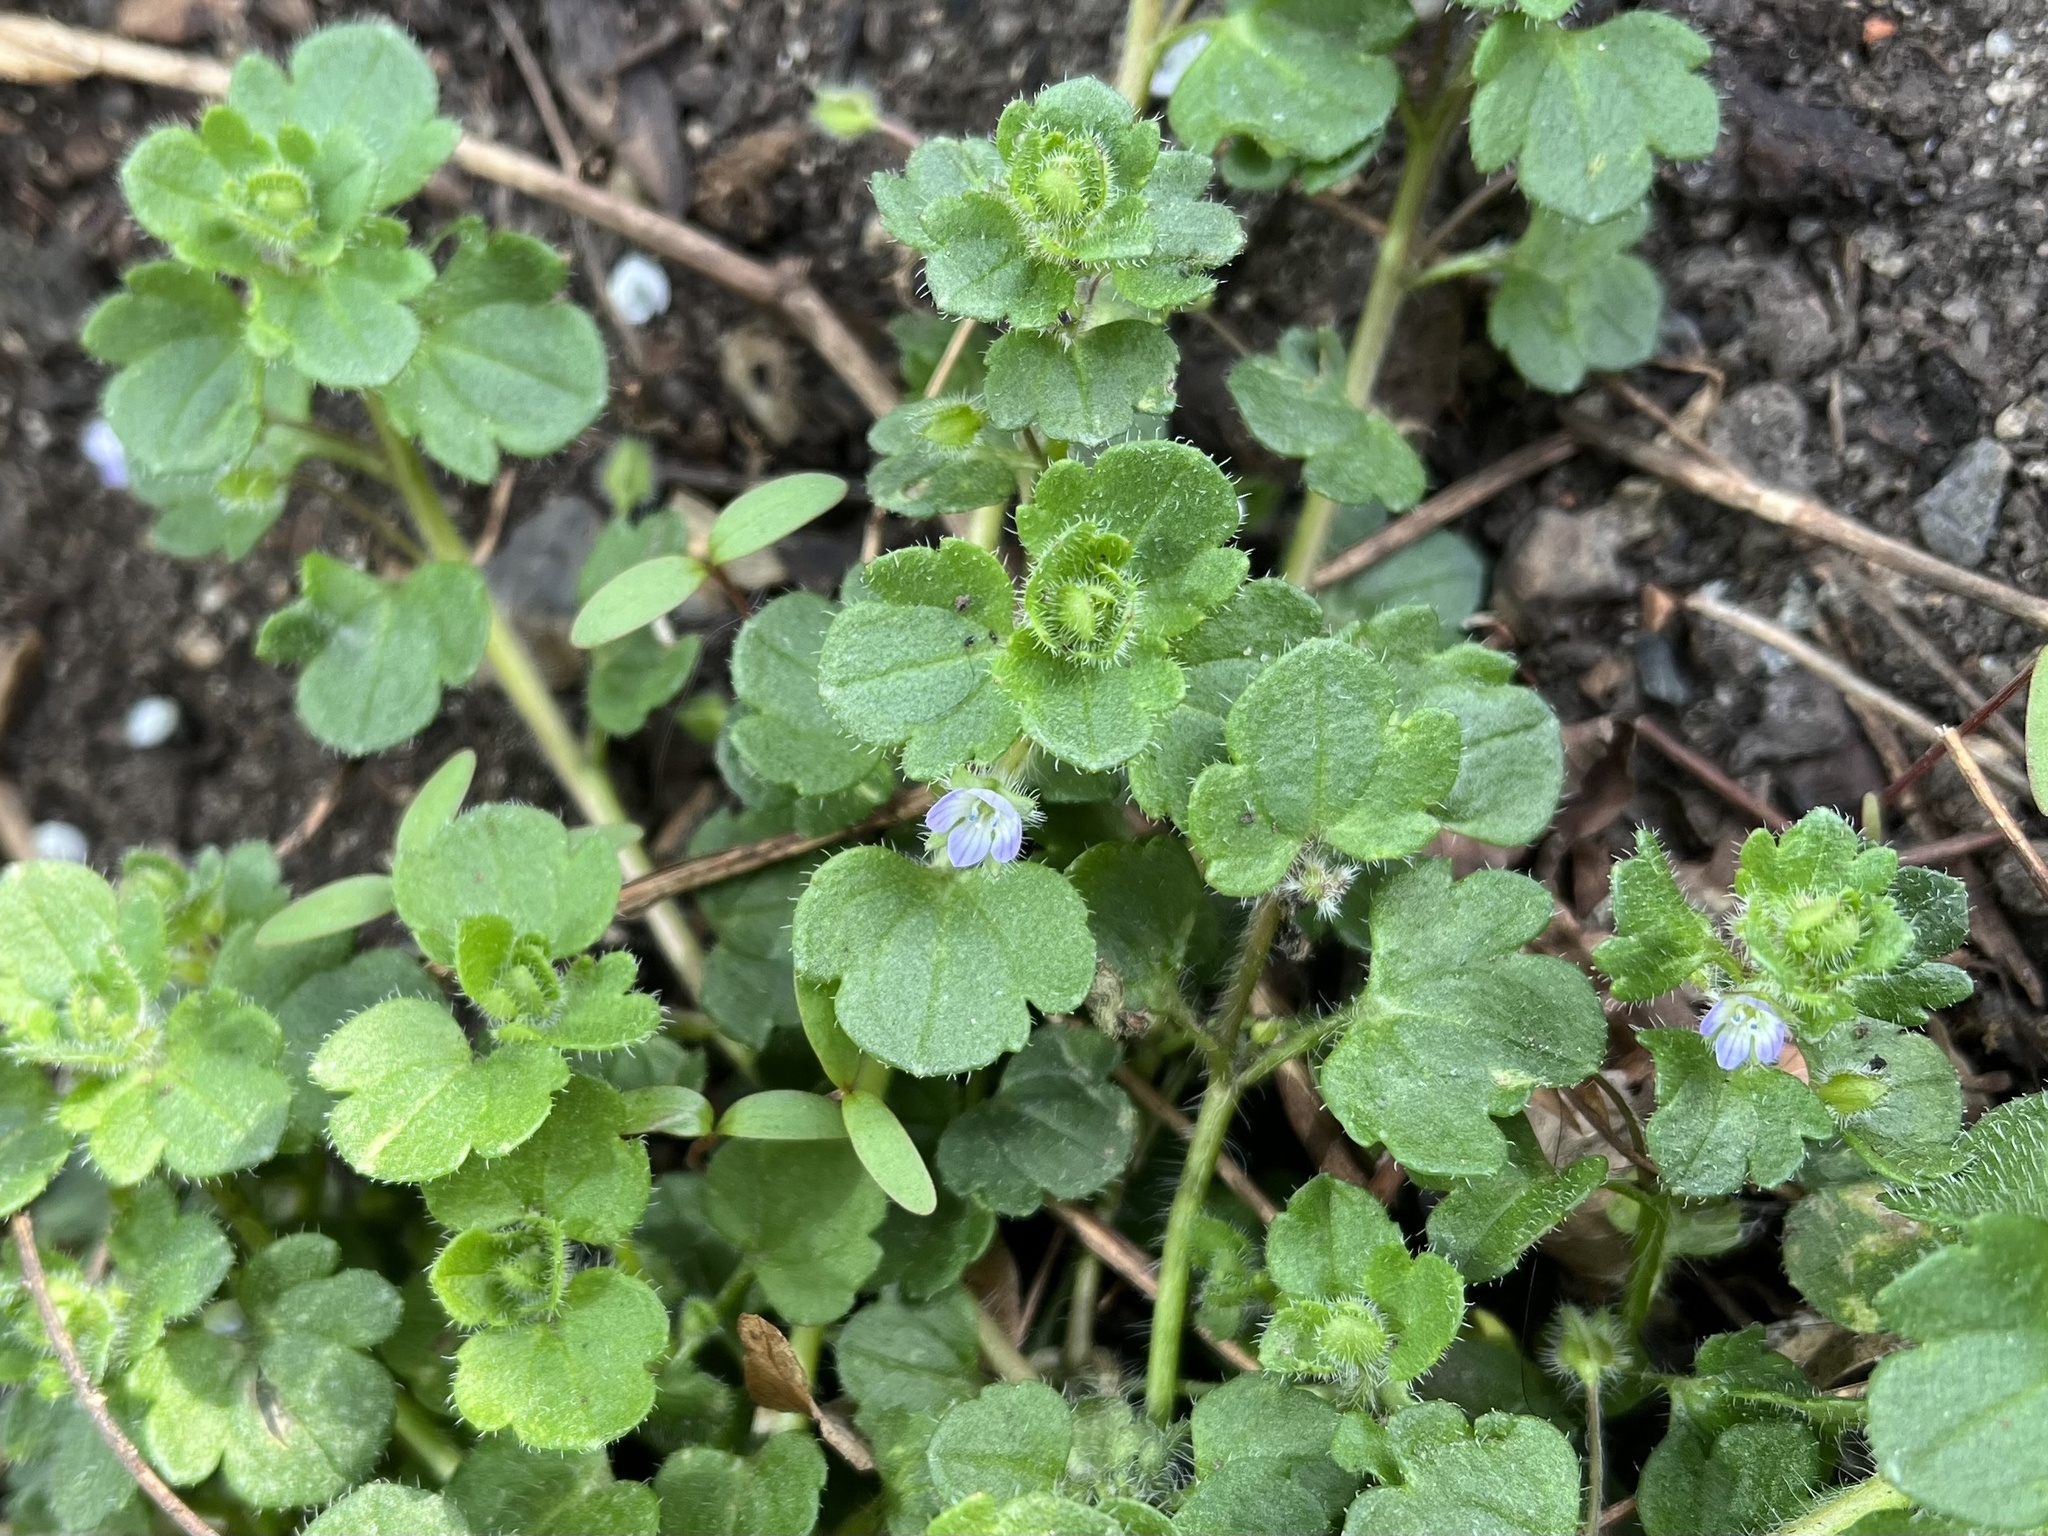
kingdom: Plantae
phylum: Tracheophyta
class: Magnoliopsida
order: Lamiales
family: Plantaginaceae
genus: Veronica
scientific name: Veronica hederifolia
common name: Ivy-leaved speedwell
